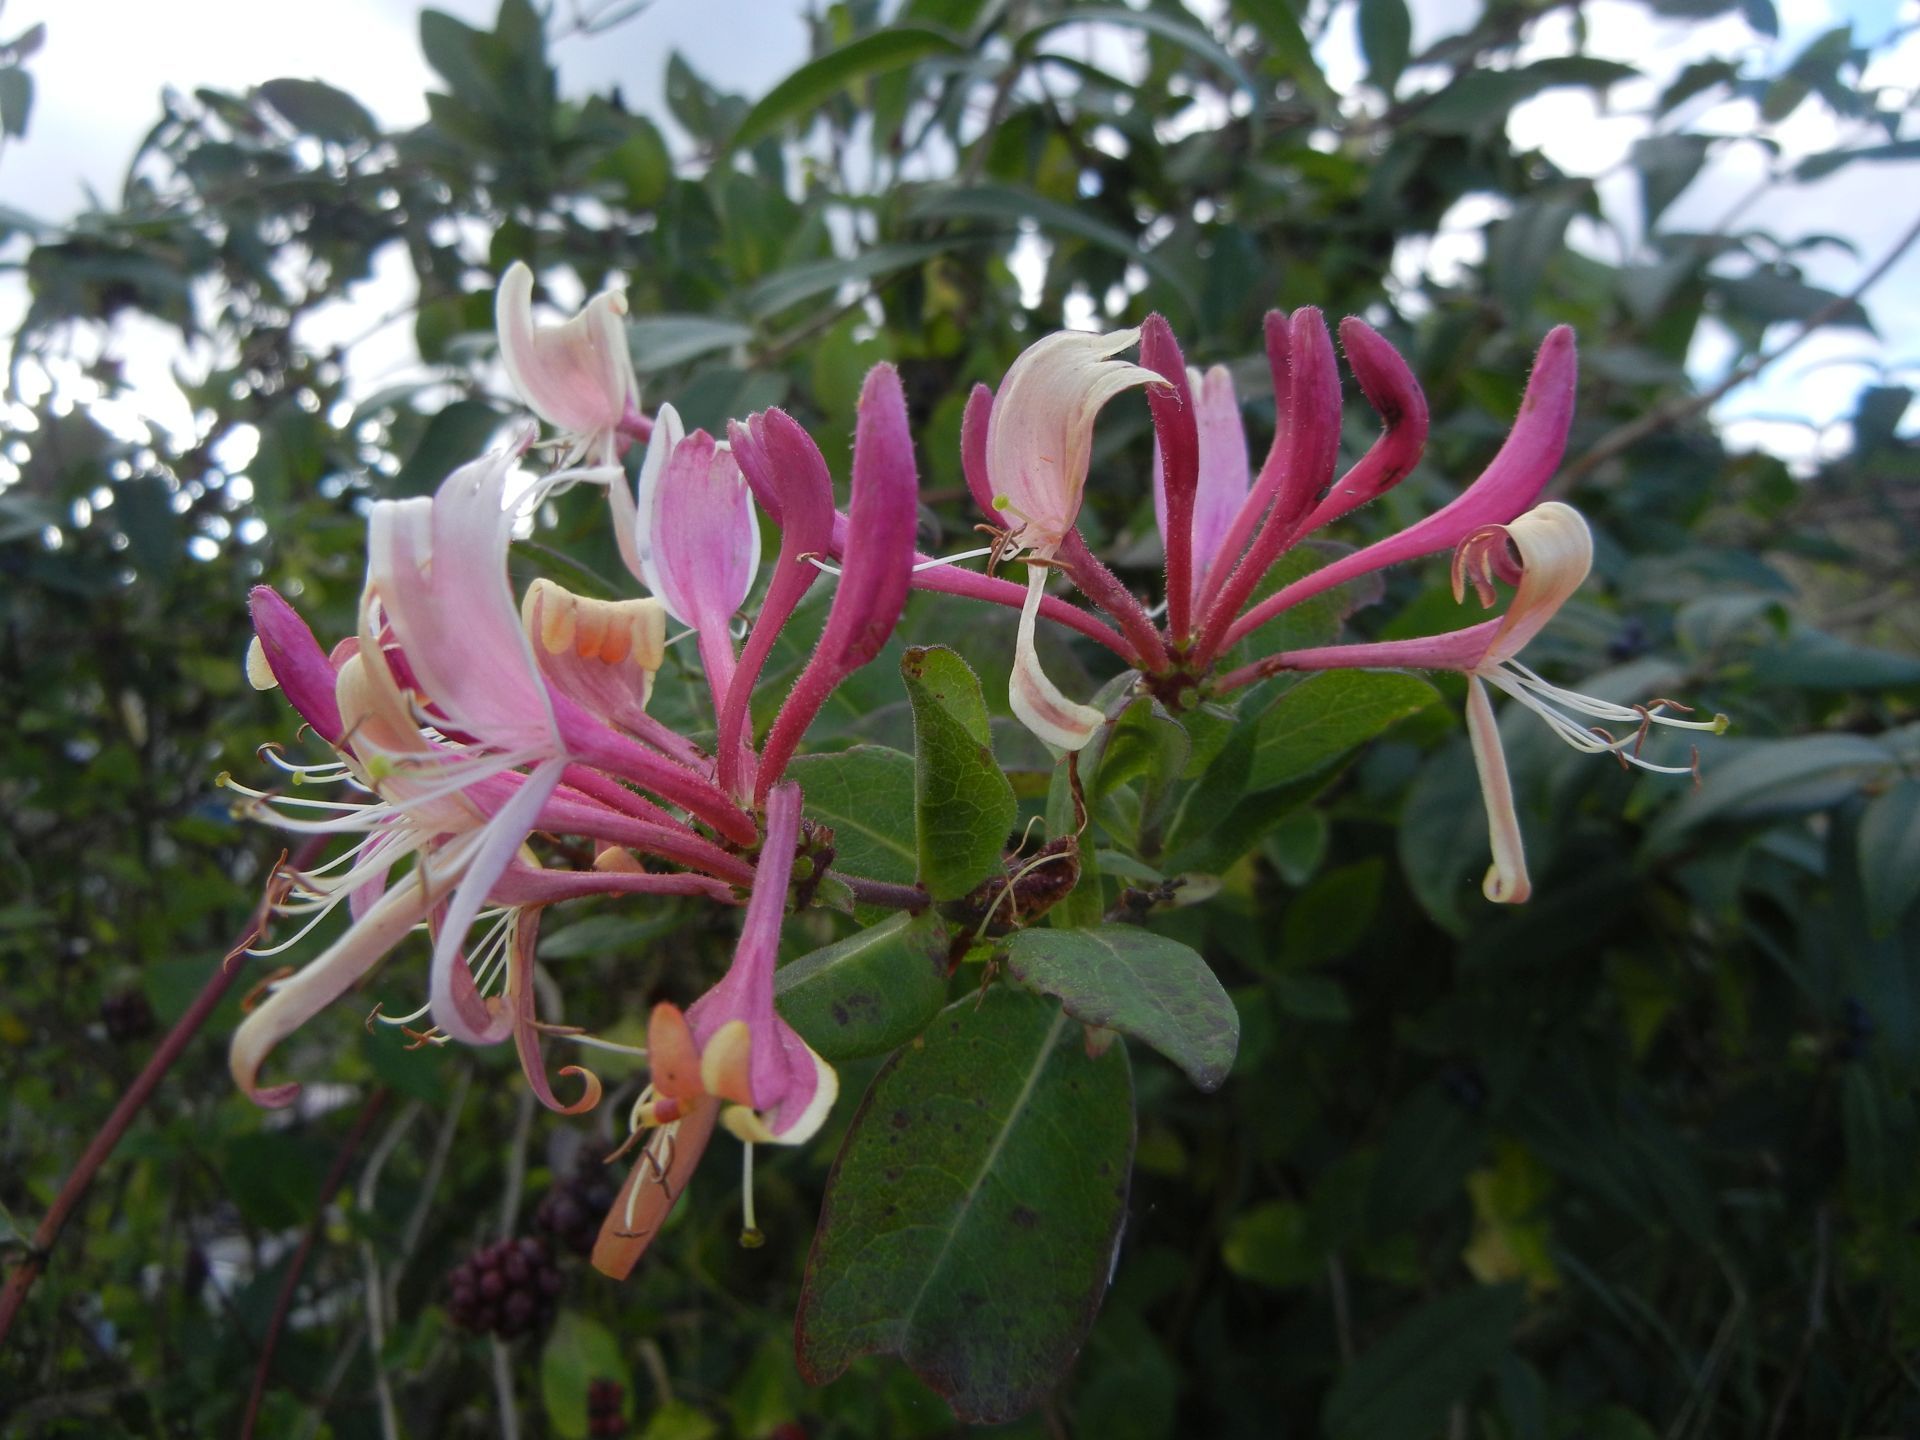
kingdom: Plantae
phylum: Tracheophyta
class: Magnoliopsida
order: Dipsacales
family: Caprifoliaceae
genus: Lonicera
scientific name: Lonicera periclymenum
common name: European honeysuckle
